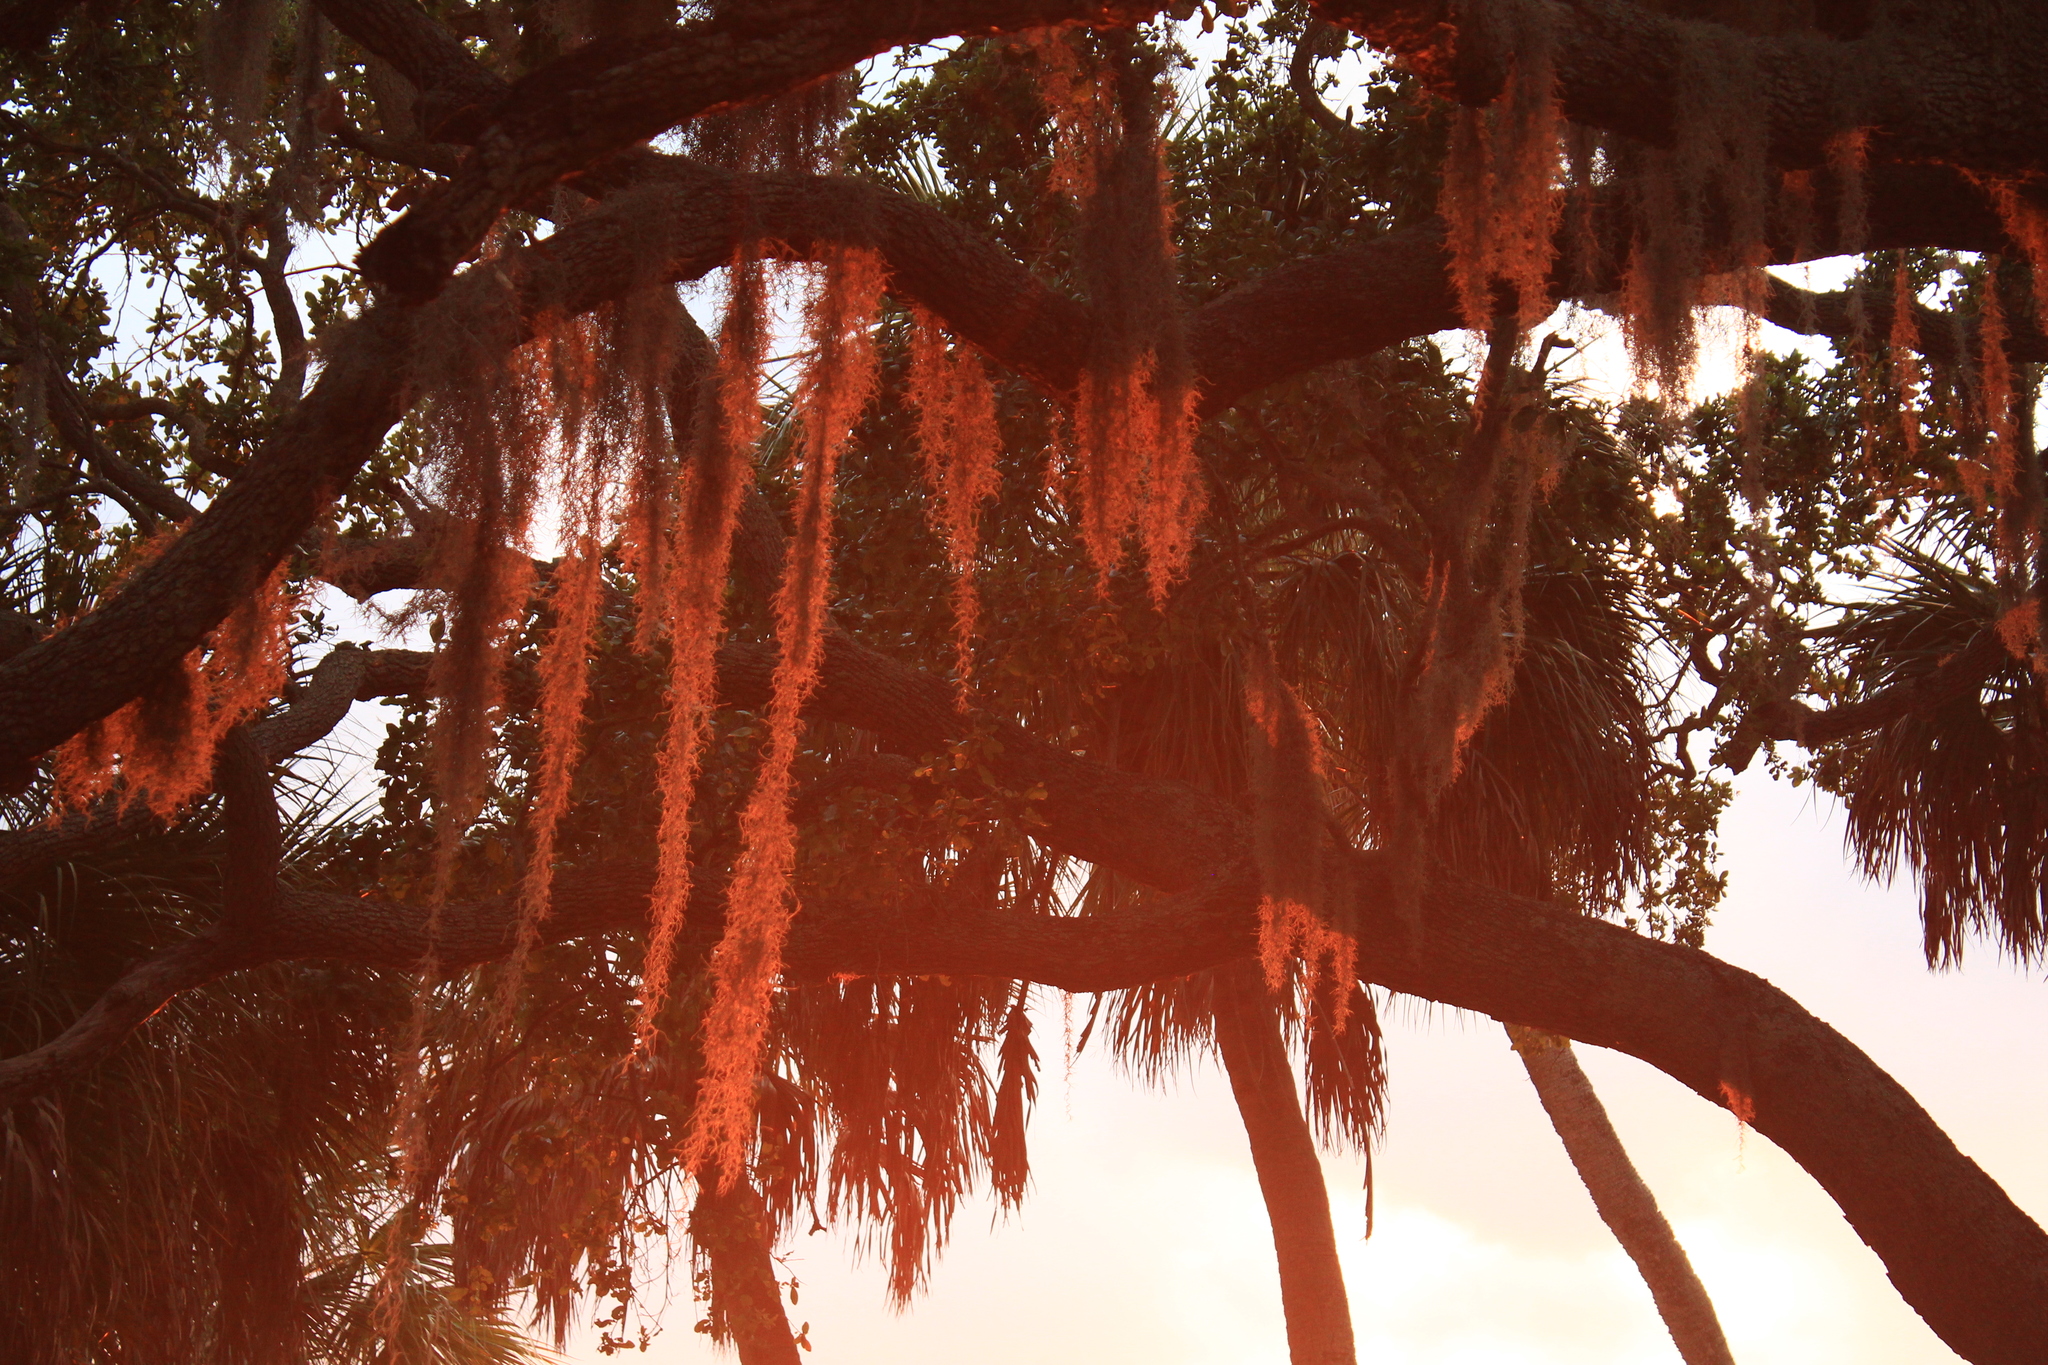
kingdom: Plantae
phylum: Tracheophyta
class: Liliopsida
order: Poales
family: Bromeliaceae
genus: Tillandsia
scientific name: Tillandsia usneoides
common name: Spanish moss
